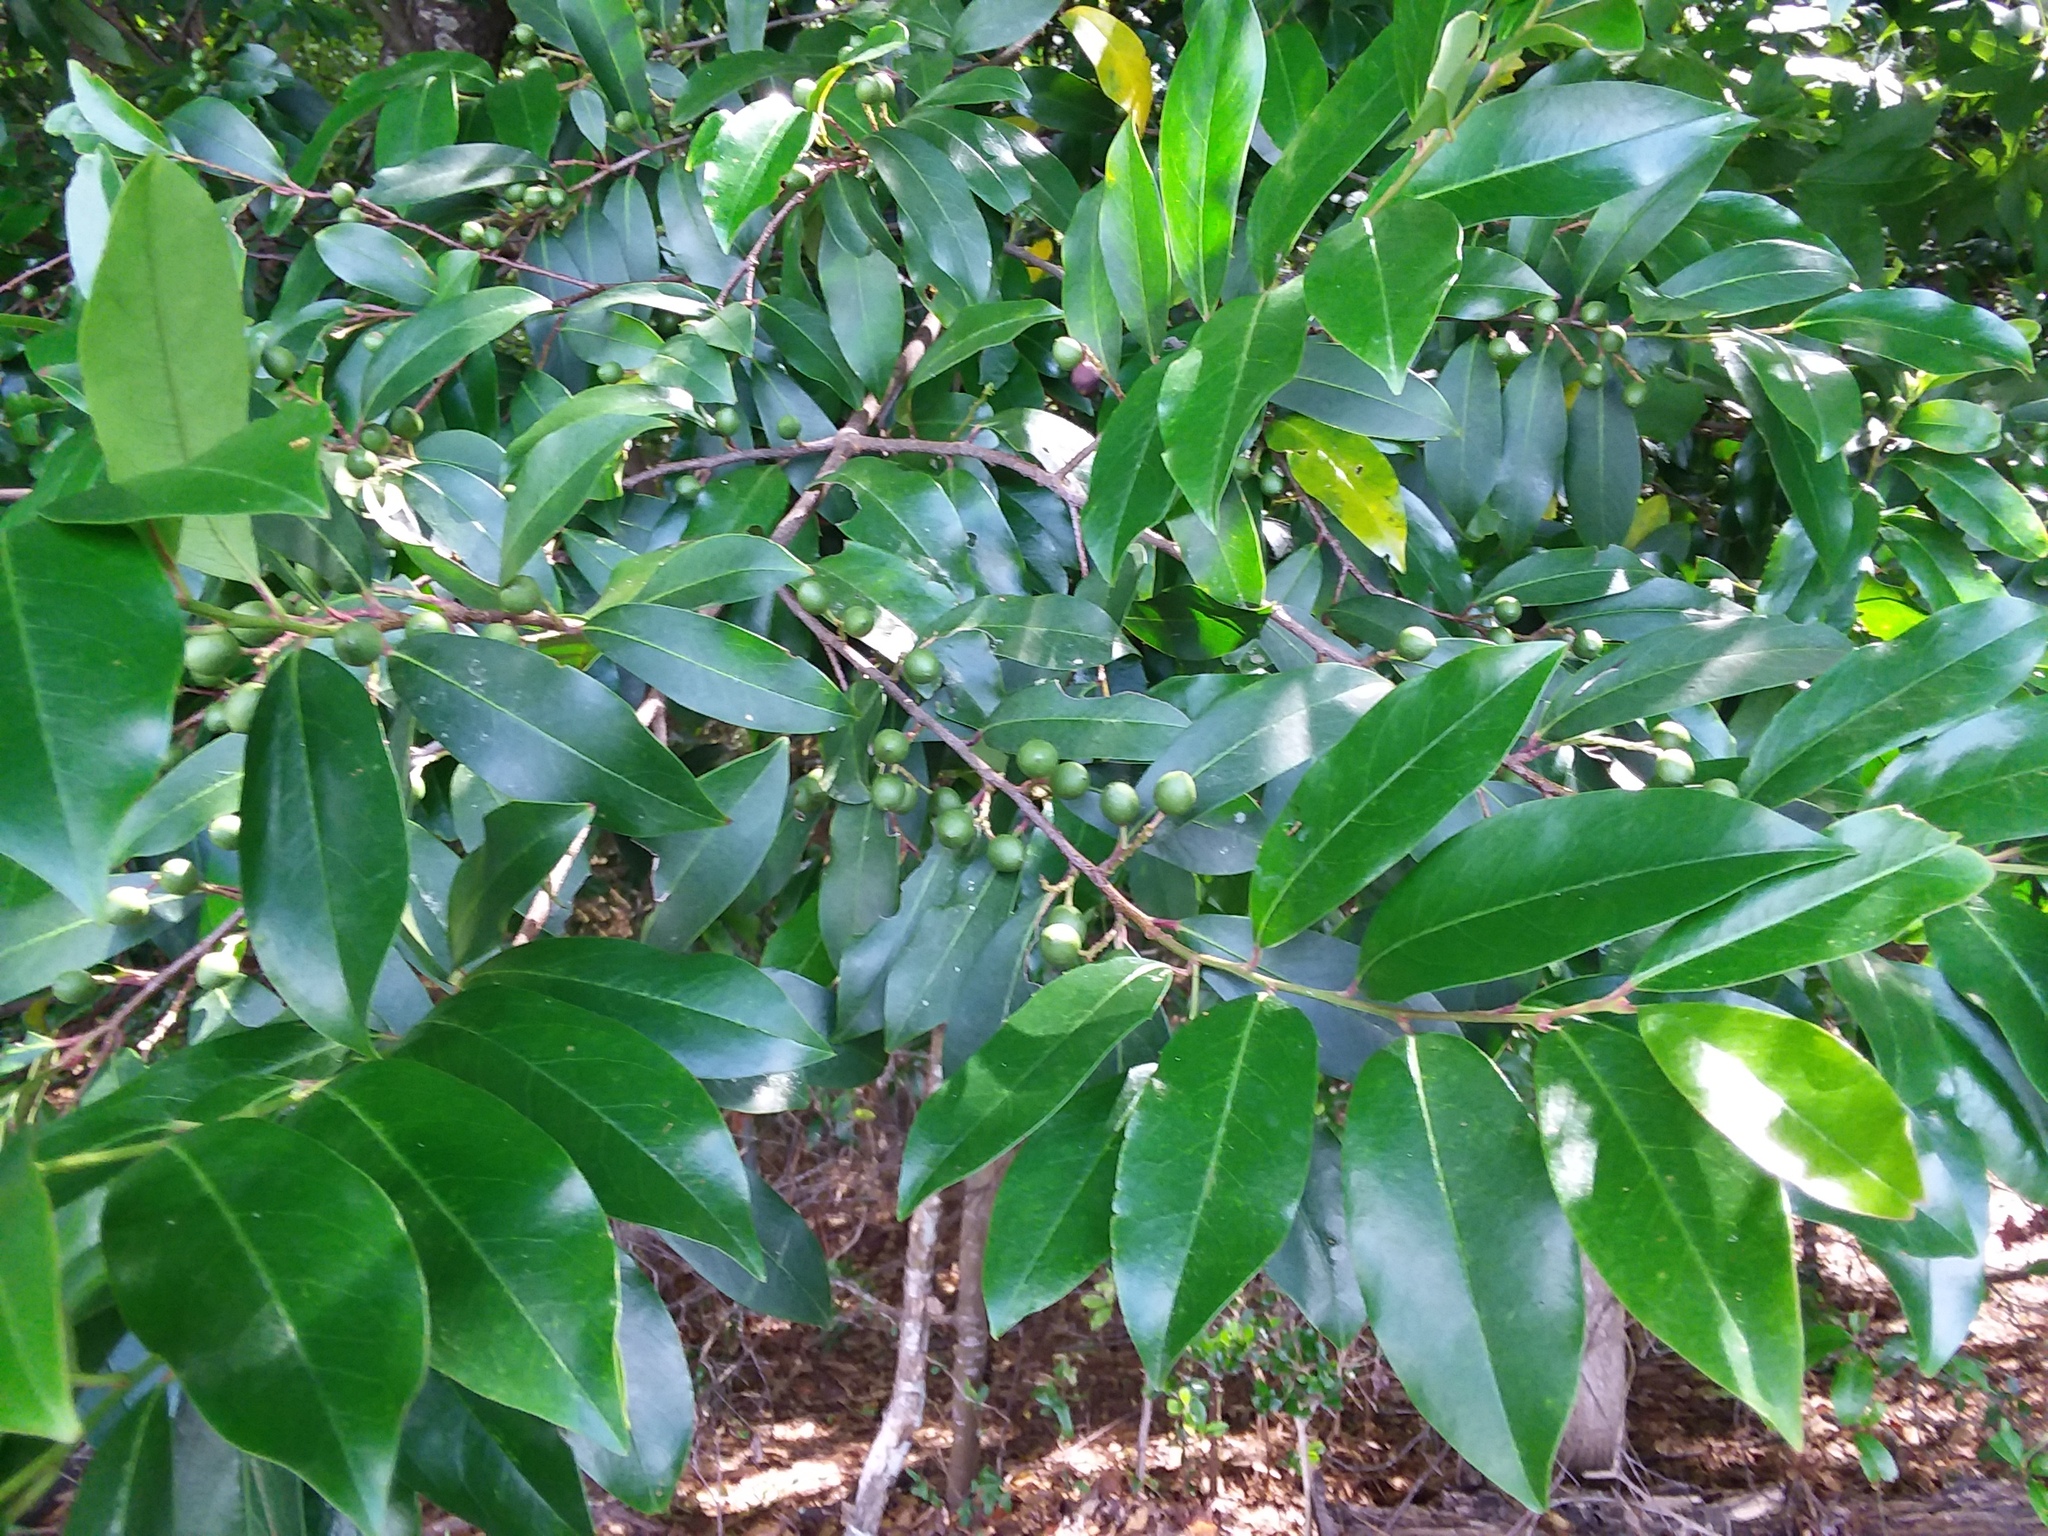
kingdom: Plantae
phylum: Tracheophyta
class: Magnoliopsida
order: Rosales
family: Rosaceae
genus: Prunus
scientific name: Prunus caroliniana
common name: Carolina laurel cherry
